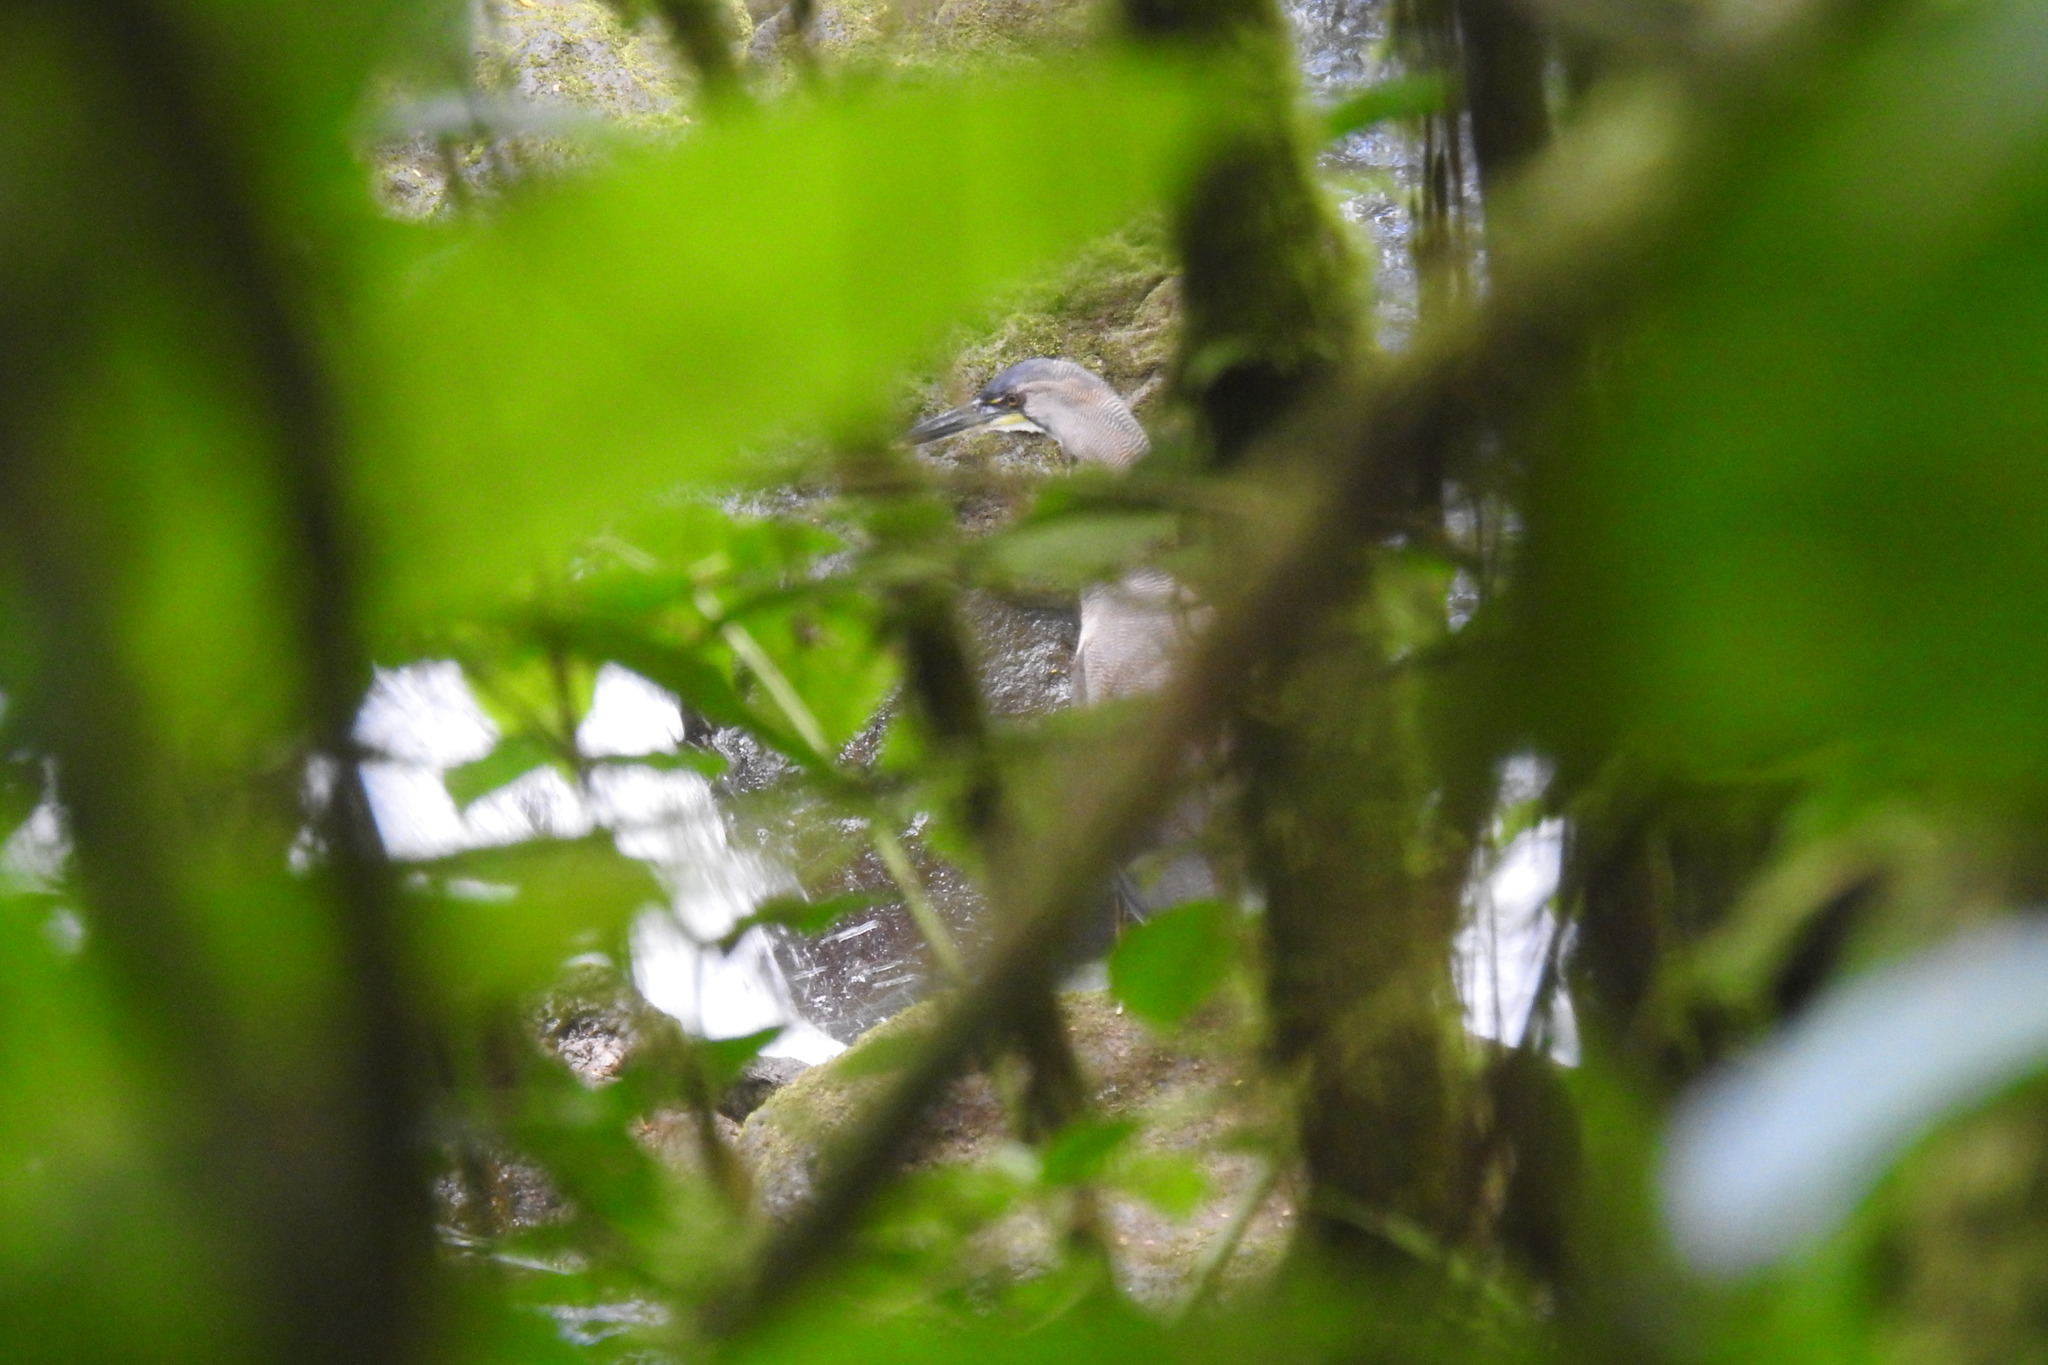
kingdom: Animalia
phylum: Chordata
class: Aves
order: Pelecaniformes
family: Ardeidae
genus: Tigrisoma
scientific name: Tigrisoma mexicanum
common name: Bare-throated tiger-heron
